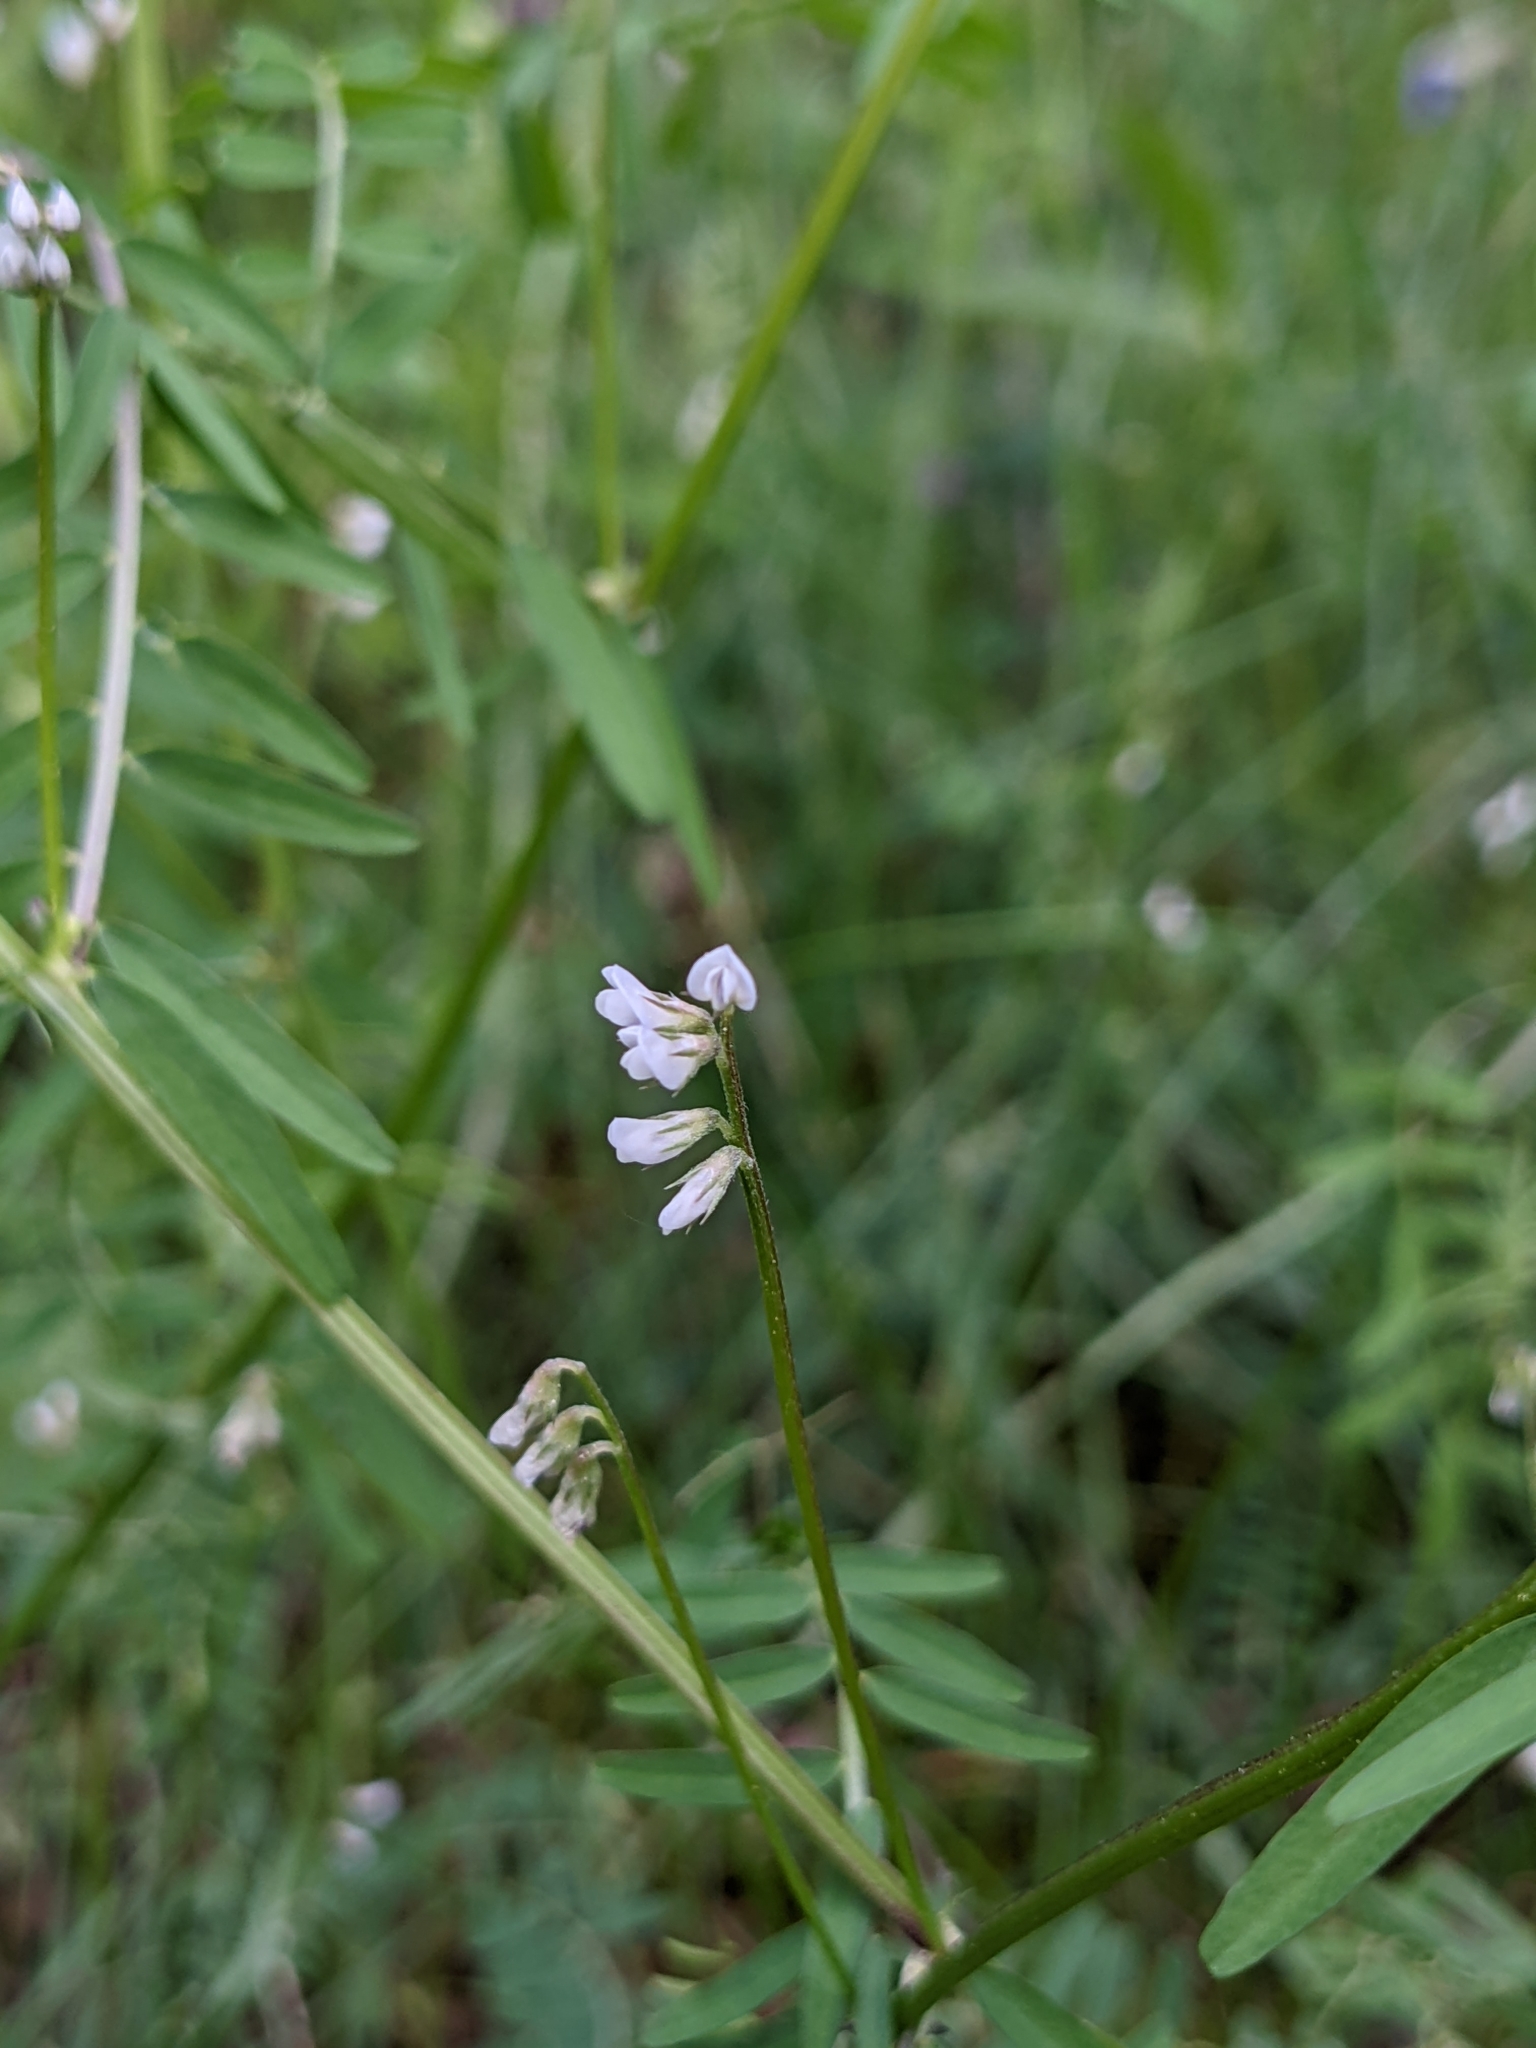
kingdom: Plantae
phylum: Tracheophyta
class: Magnoliopsida
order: Fabales
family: Fabaceae
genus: Vicia
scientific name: Vicia hirsuta
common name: Tiny vetch
